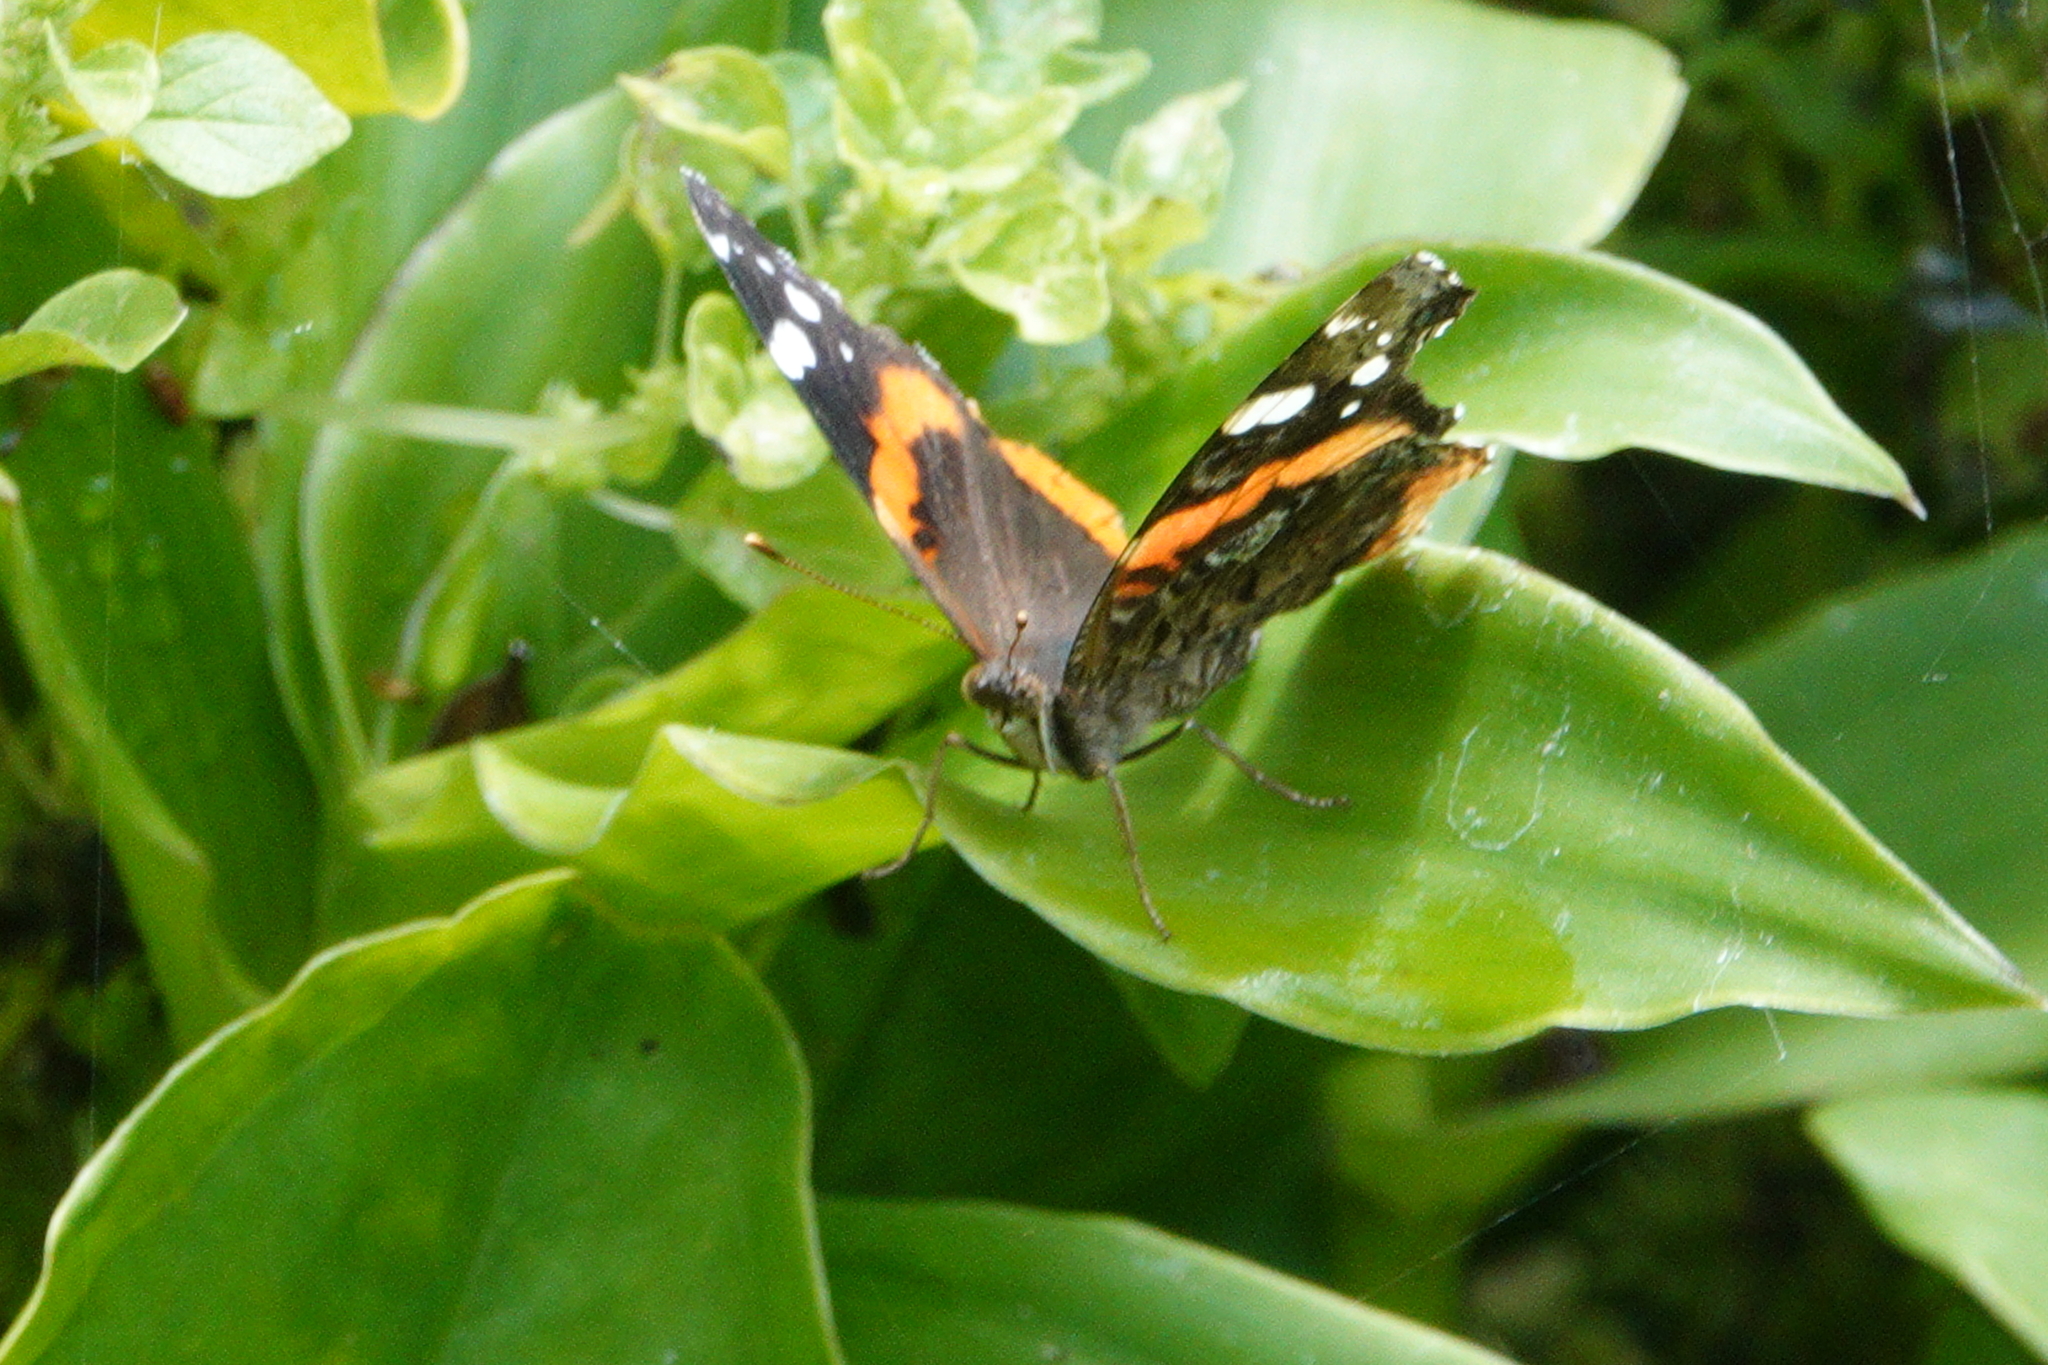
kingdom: Animalia
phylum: Arthropoda
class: Insecta
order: Lepidoptera
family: Nymphalidae
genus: Vanessa
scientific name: Vanessa atalanta
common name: Red admiral
